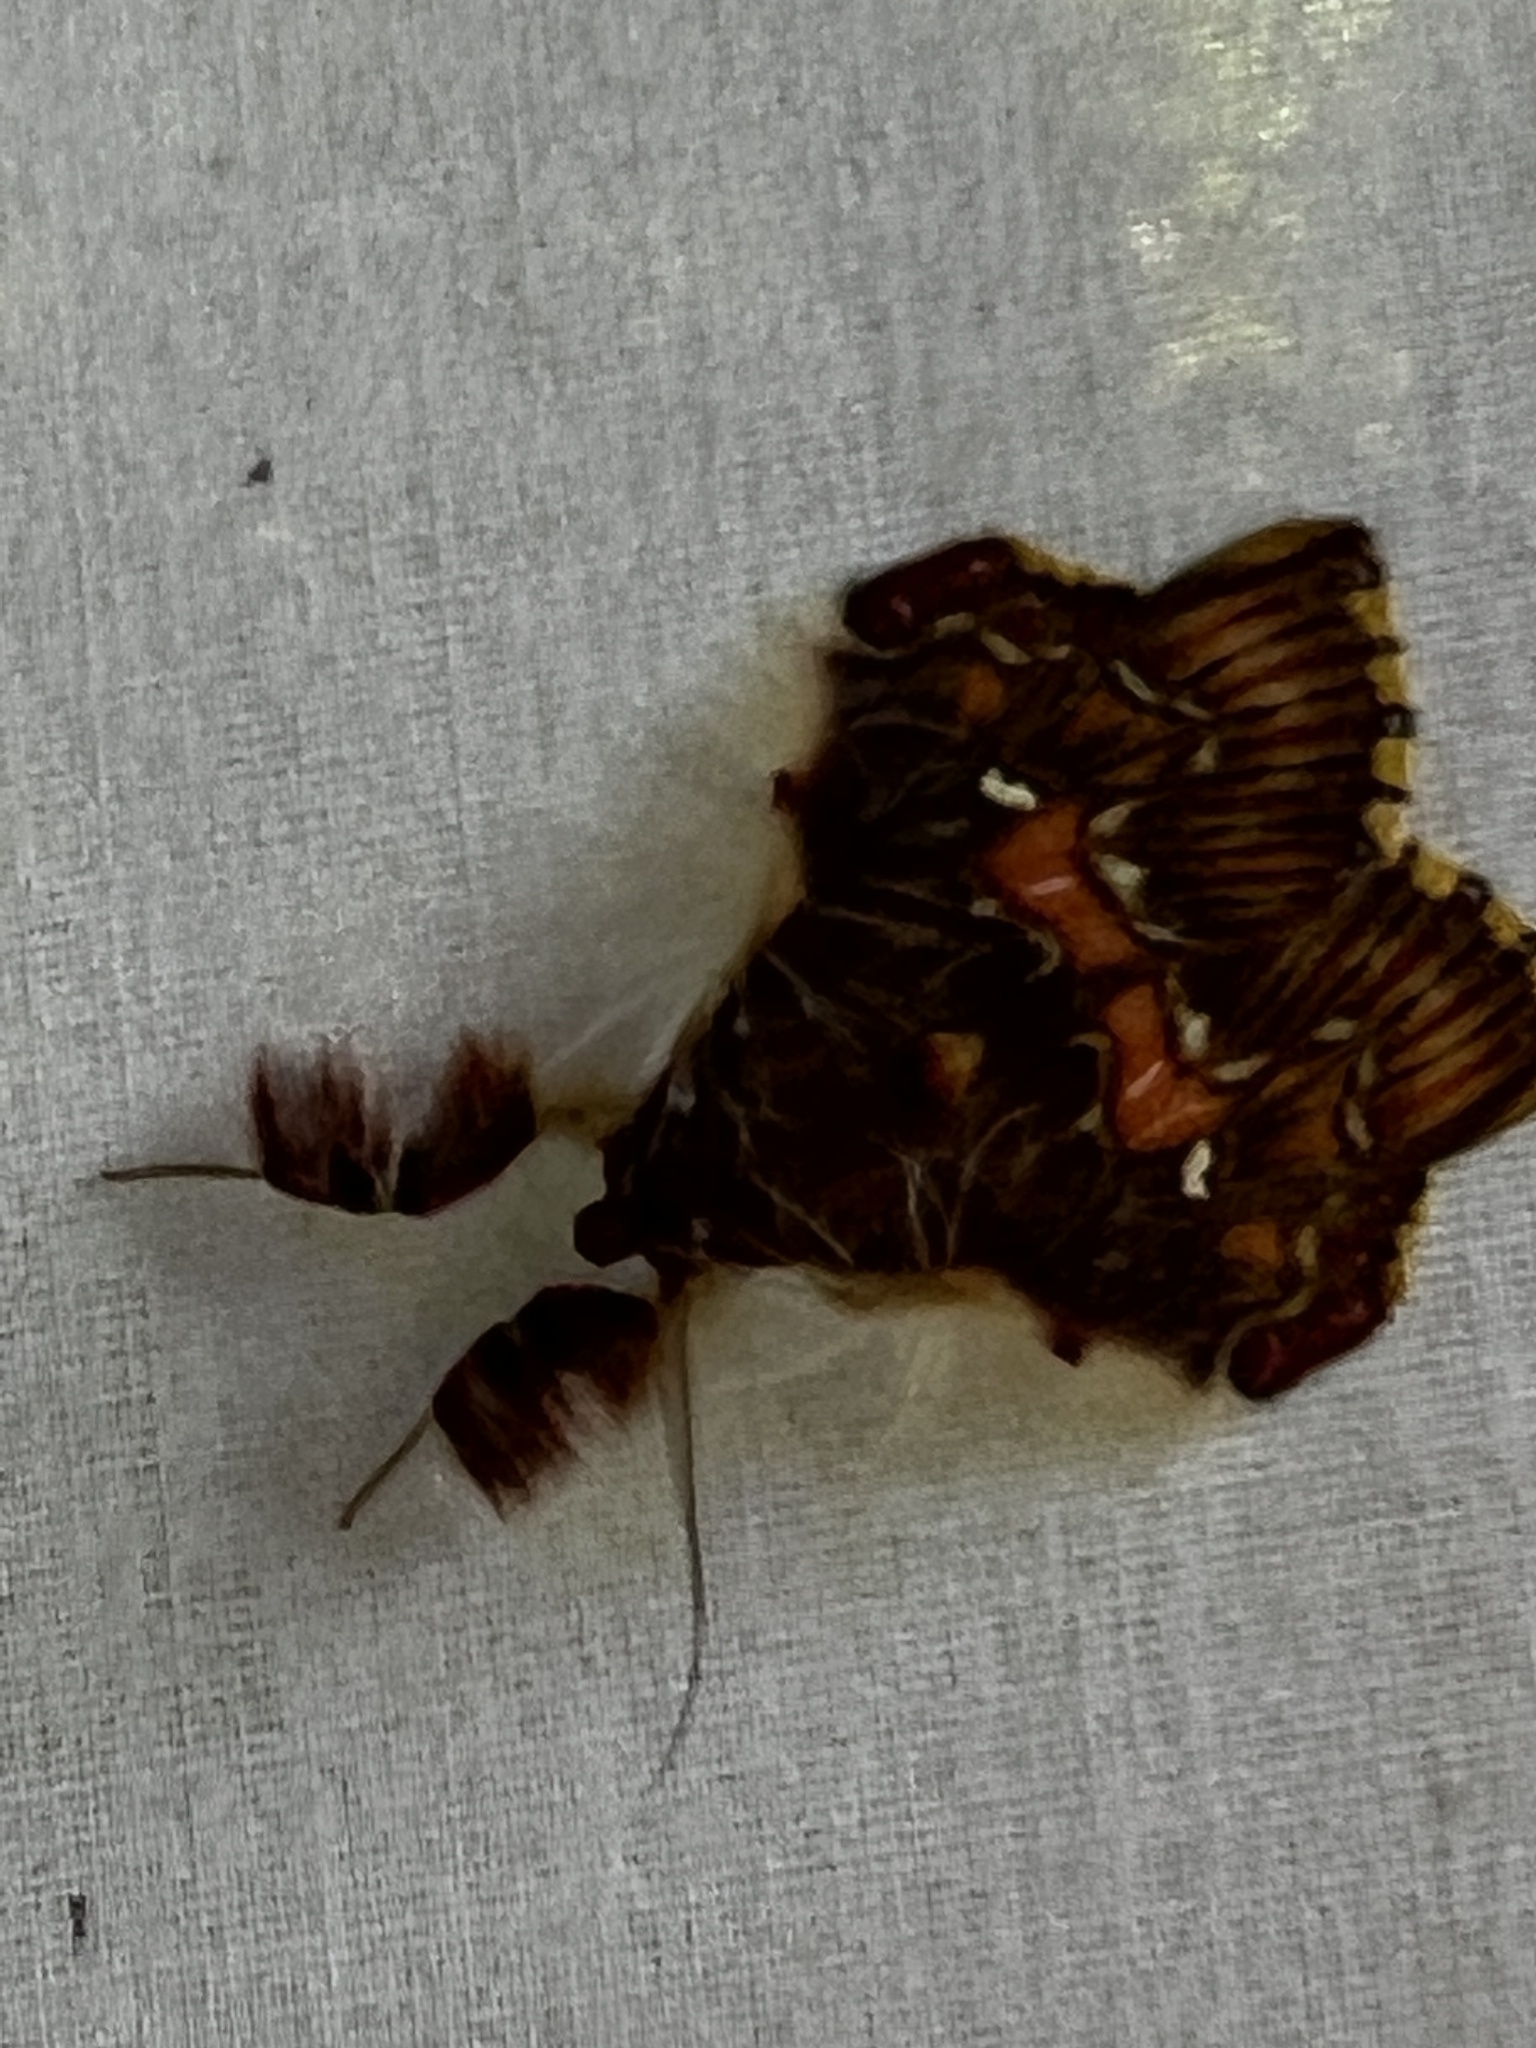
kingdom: Animalia
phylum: Arthropoda
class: Insecta
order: Lepidoptera
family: Erebidae
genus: Sosxetra
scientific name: Sosxetra grata
